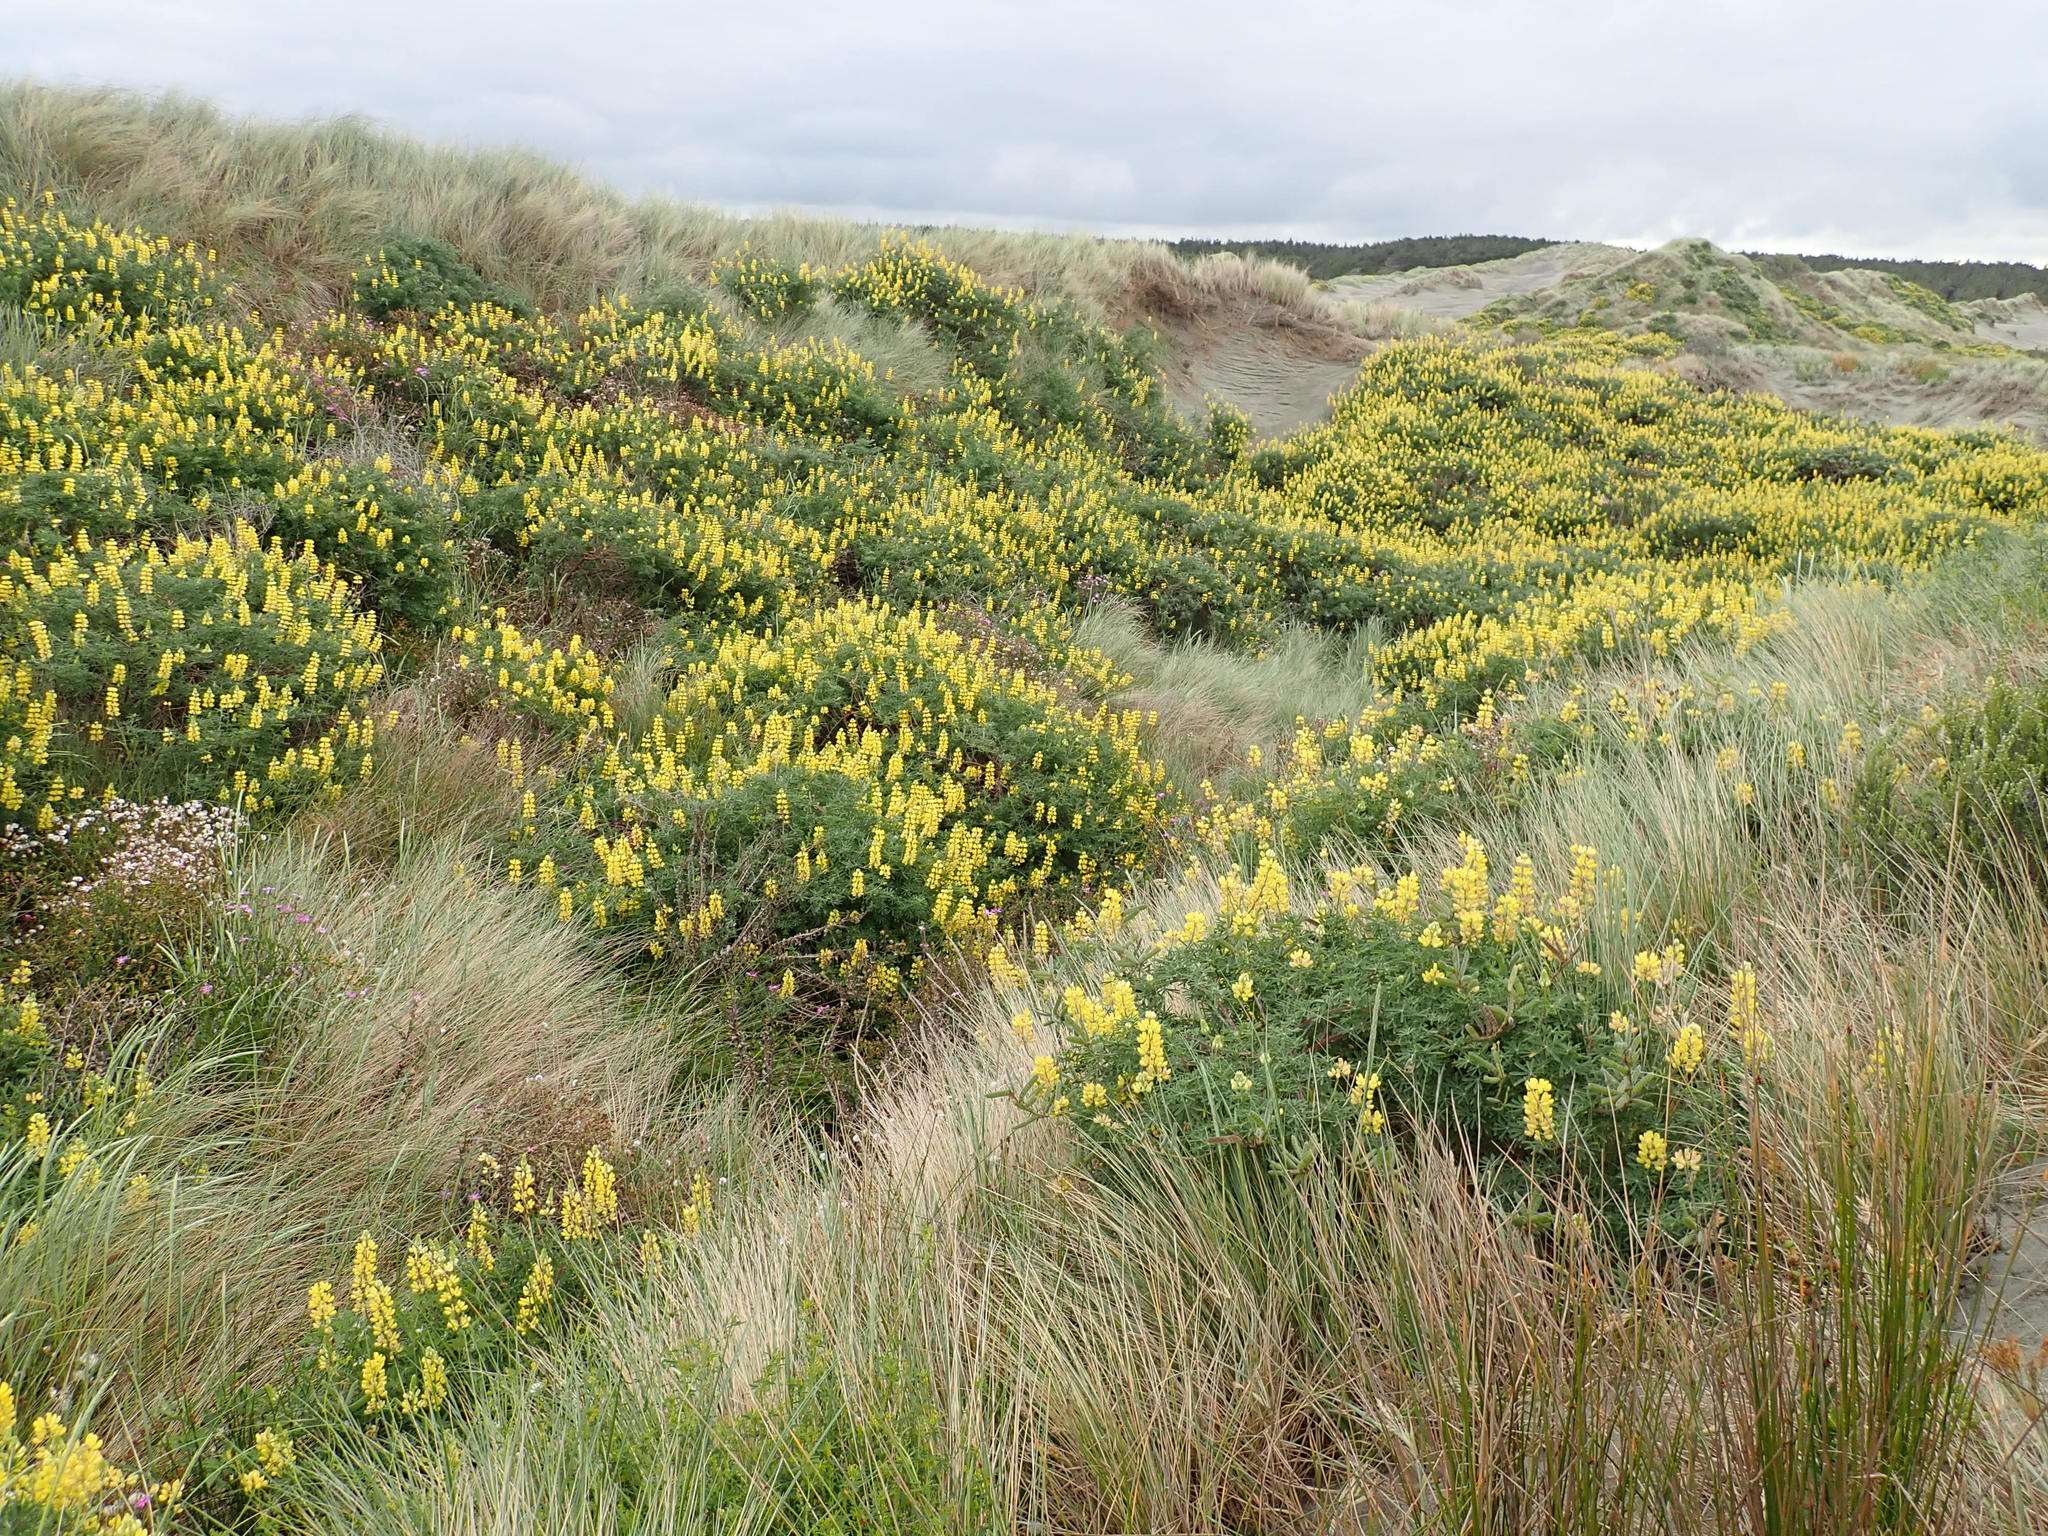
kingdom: Plantae
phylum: Tracheophyta
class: Magnoliopsida
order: Fabales
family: Fabaceae
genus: Lupinus
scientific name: Lupinus arboreus
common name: Yellow bush lupine
